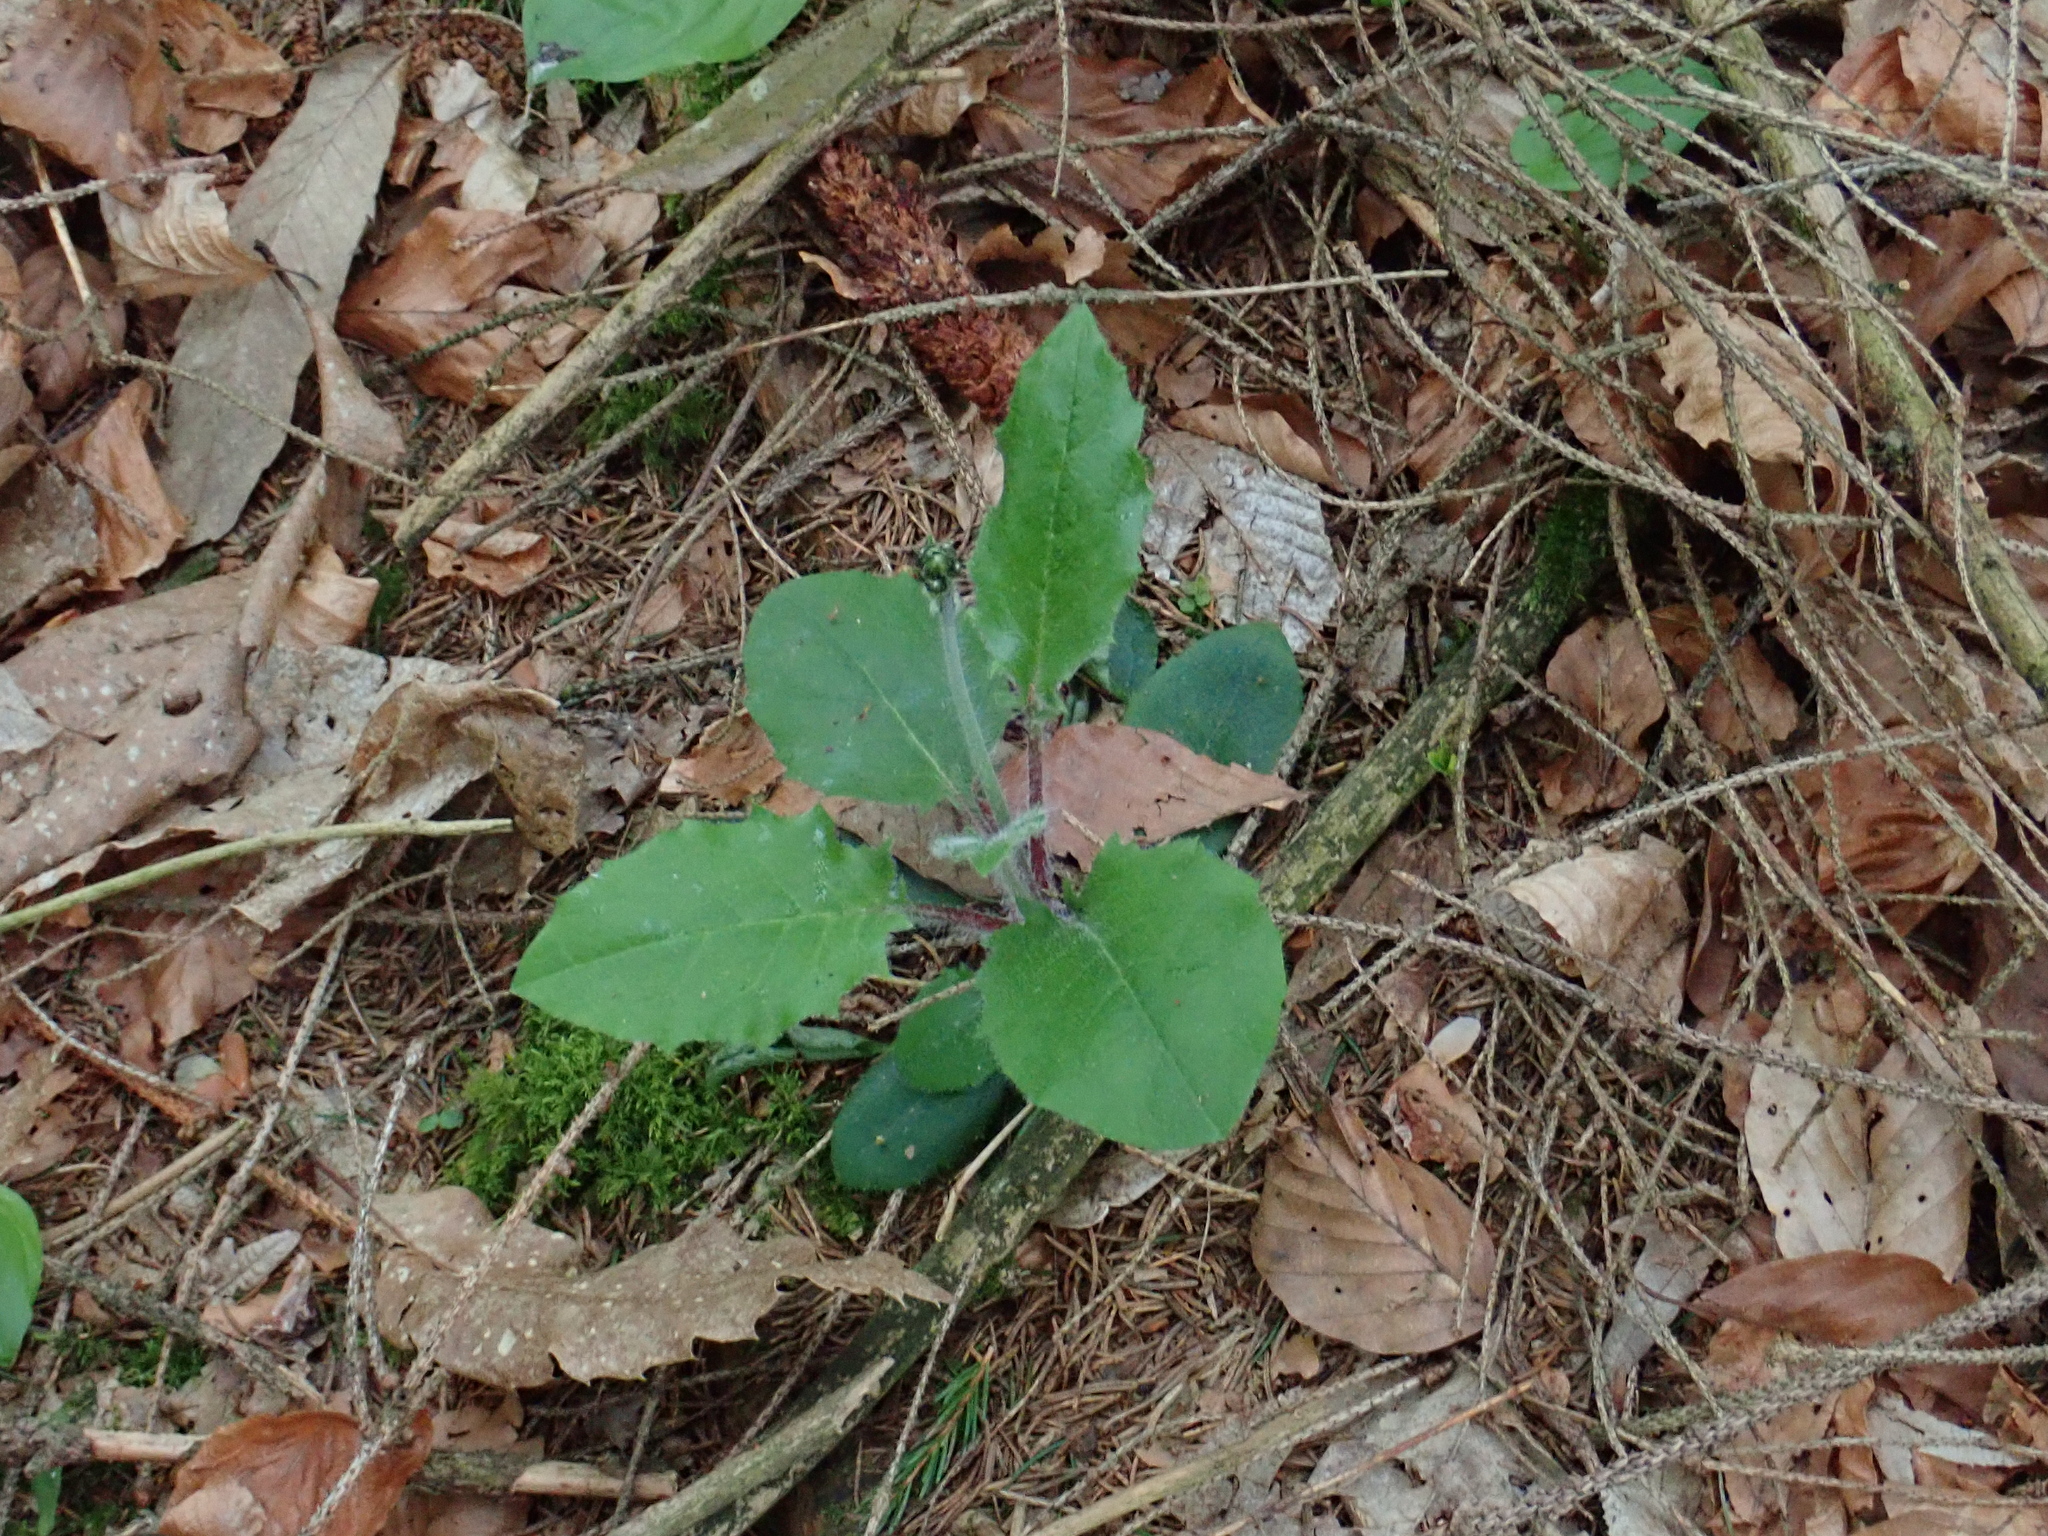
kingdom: Plantae
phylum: Tracheophyta
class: Magnoliopsida
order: Asterales
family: Asteraceae
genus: Hieracium
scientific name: Hieracium murorum
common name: Wall hawkweed
